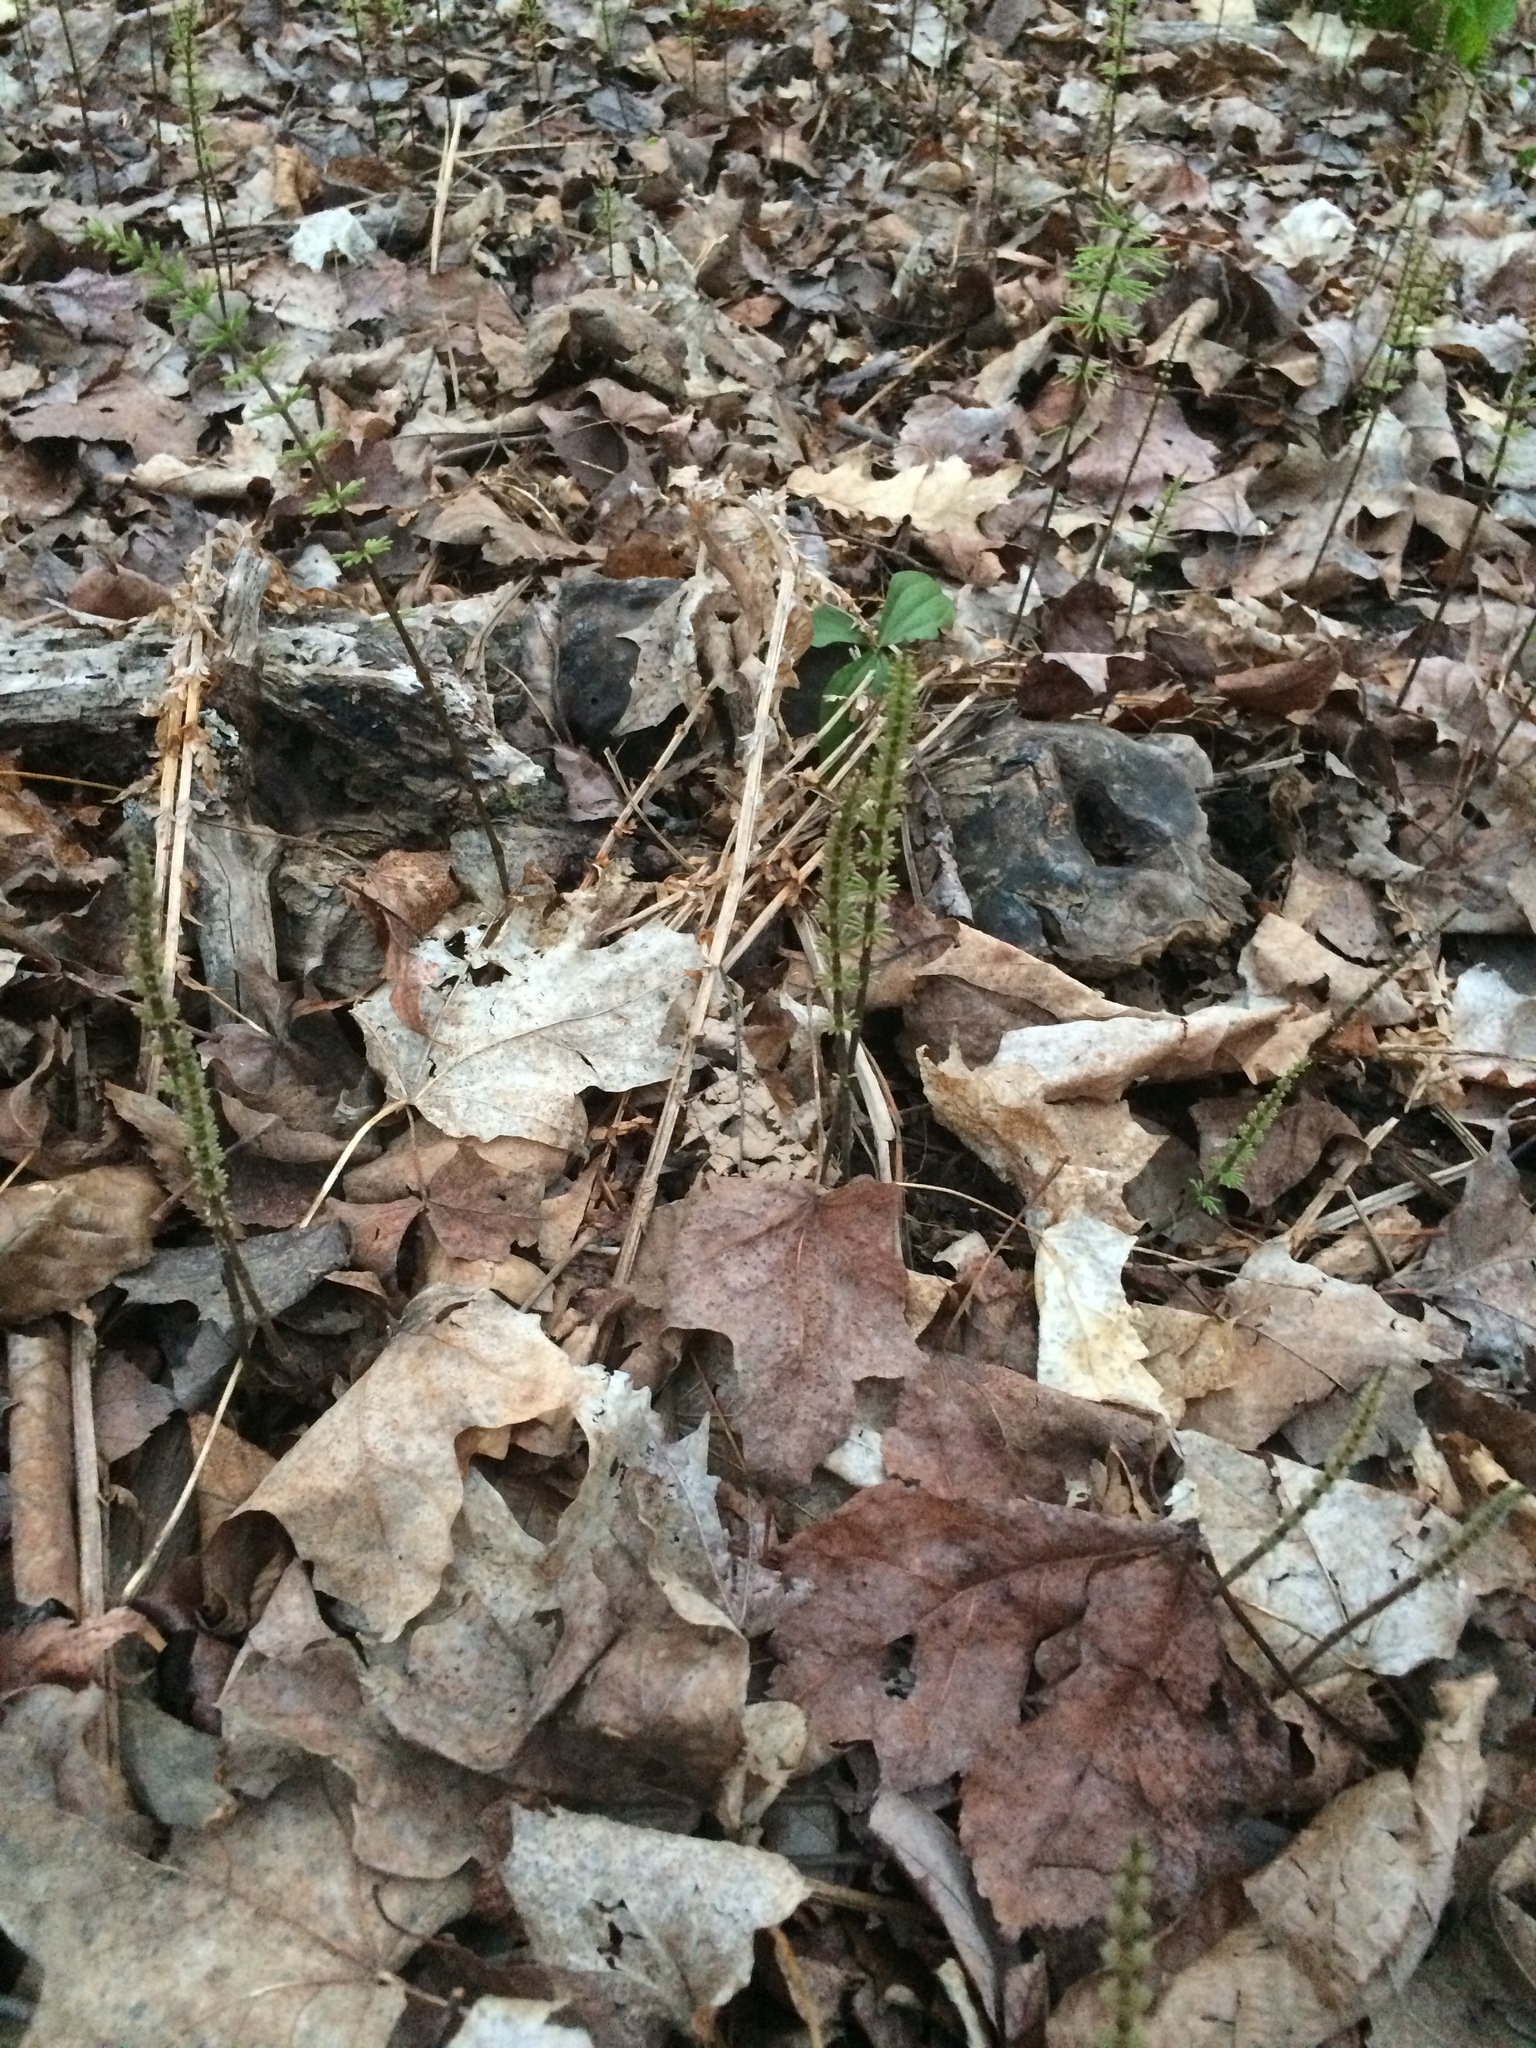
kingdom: Plantae
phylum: Tracheophyta
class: Polypodiopsida
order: Equisetales
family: Equisetaceae
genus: Equisetum
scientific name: Equisetum pratense
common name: Meadow horsetail
